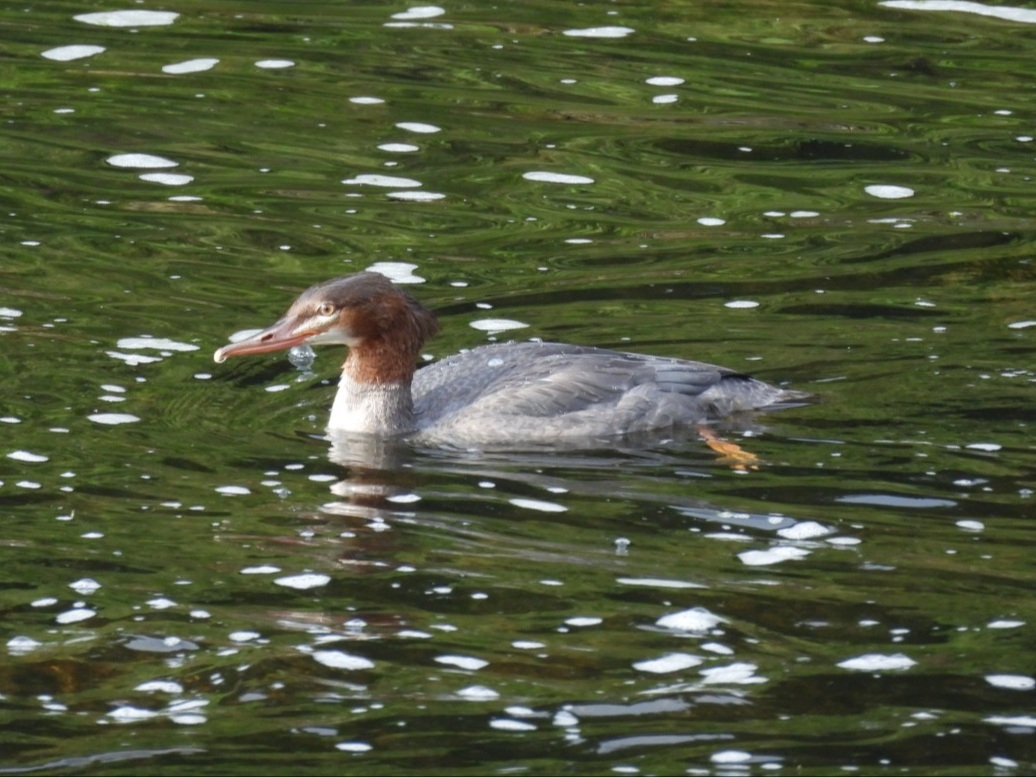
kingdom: Animalia
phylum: Chordata
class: Aves
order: Anseriformes
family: Anatidae
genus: Mergus
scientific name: Mergus merganser
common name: Common merganser
